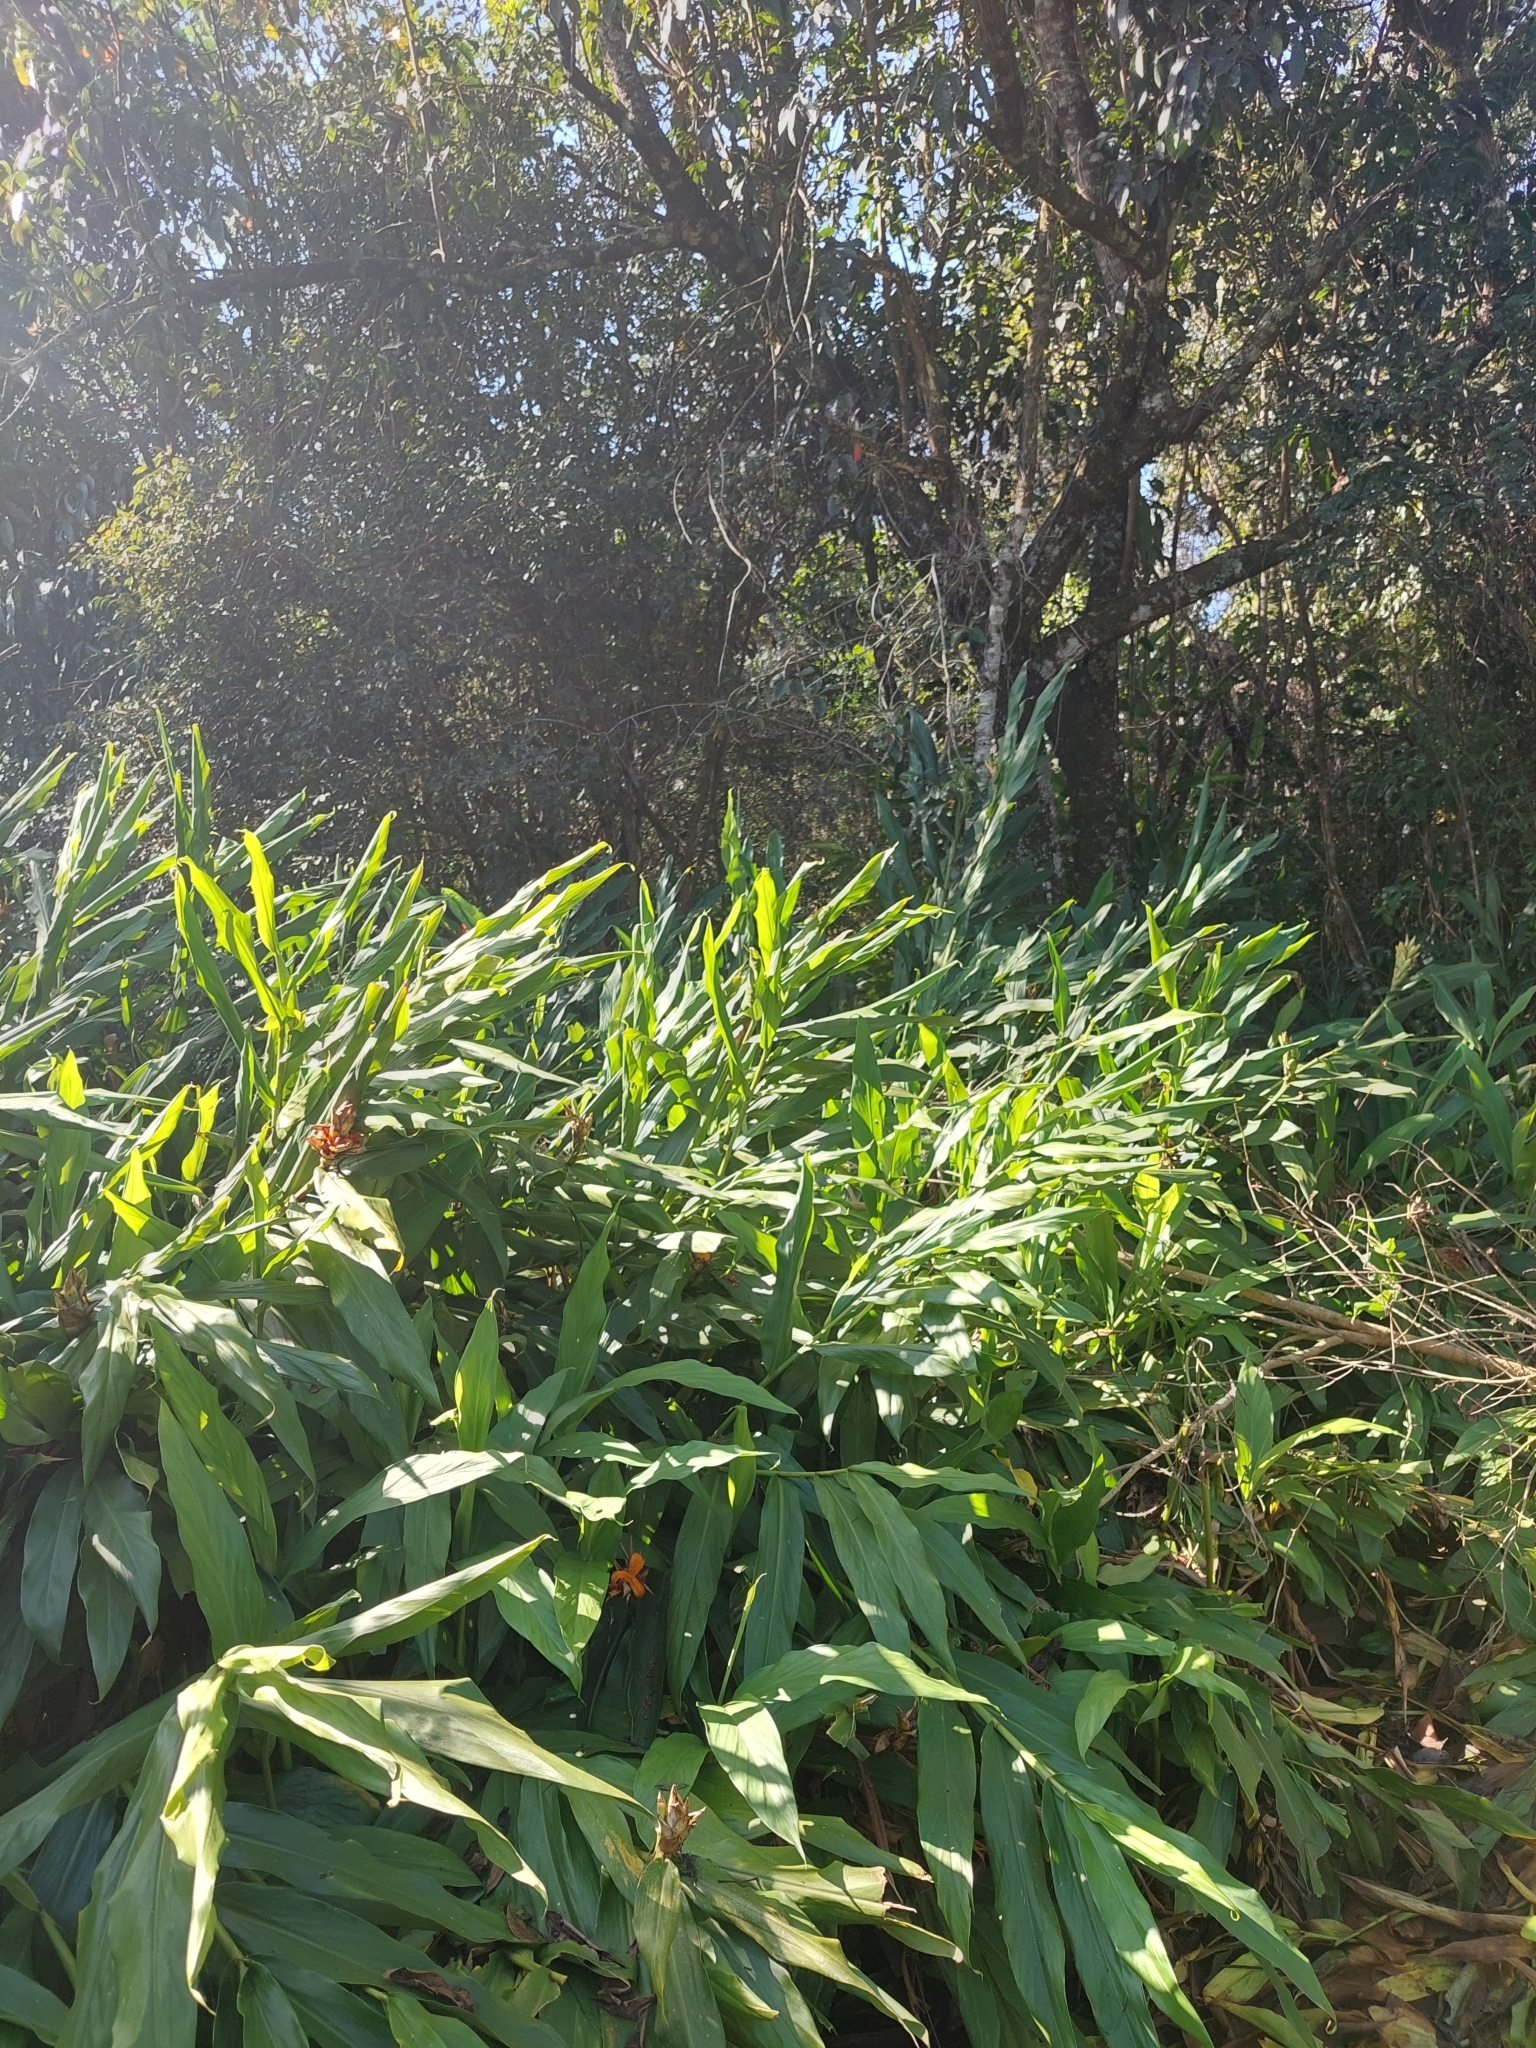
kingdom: Plantae
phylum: Tracheophyta
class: Liliopsida
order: Zingiberales
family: Zingiberaceae
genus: Hedychium
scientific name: Hedychium coronarium
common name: White garland-lily
